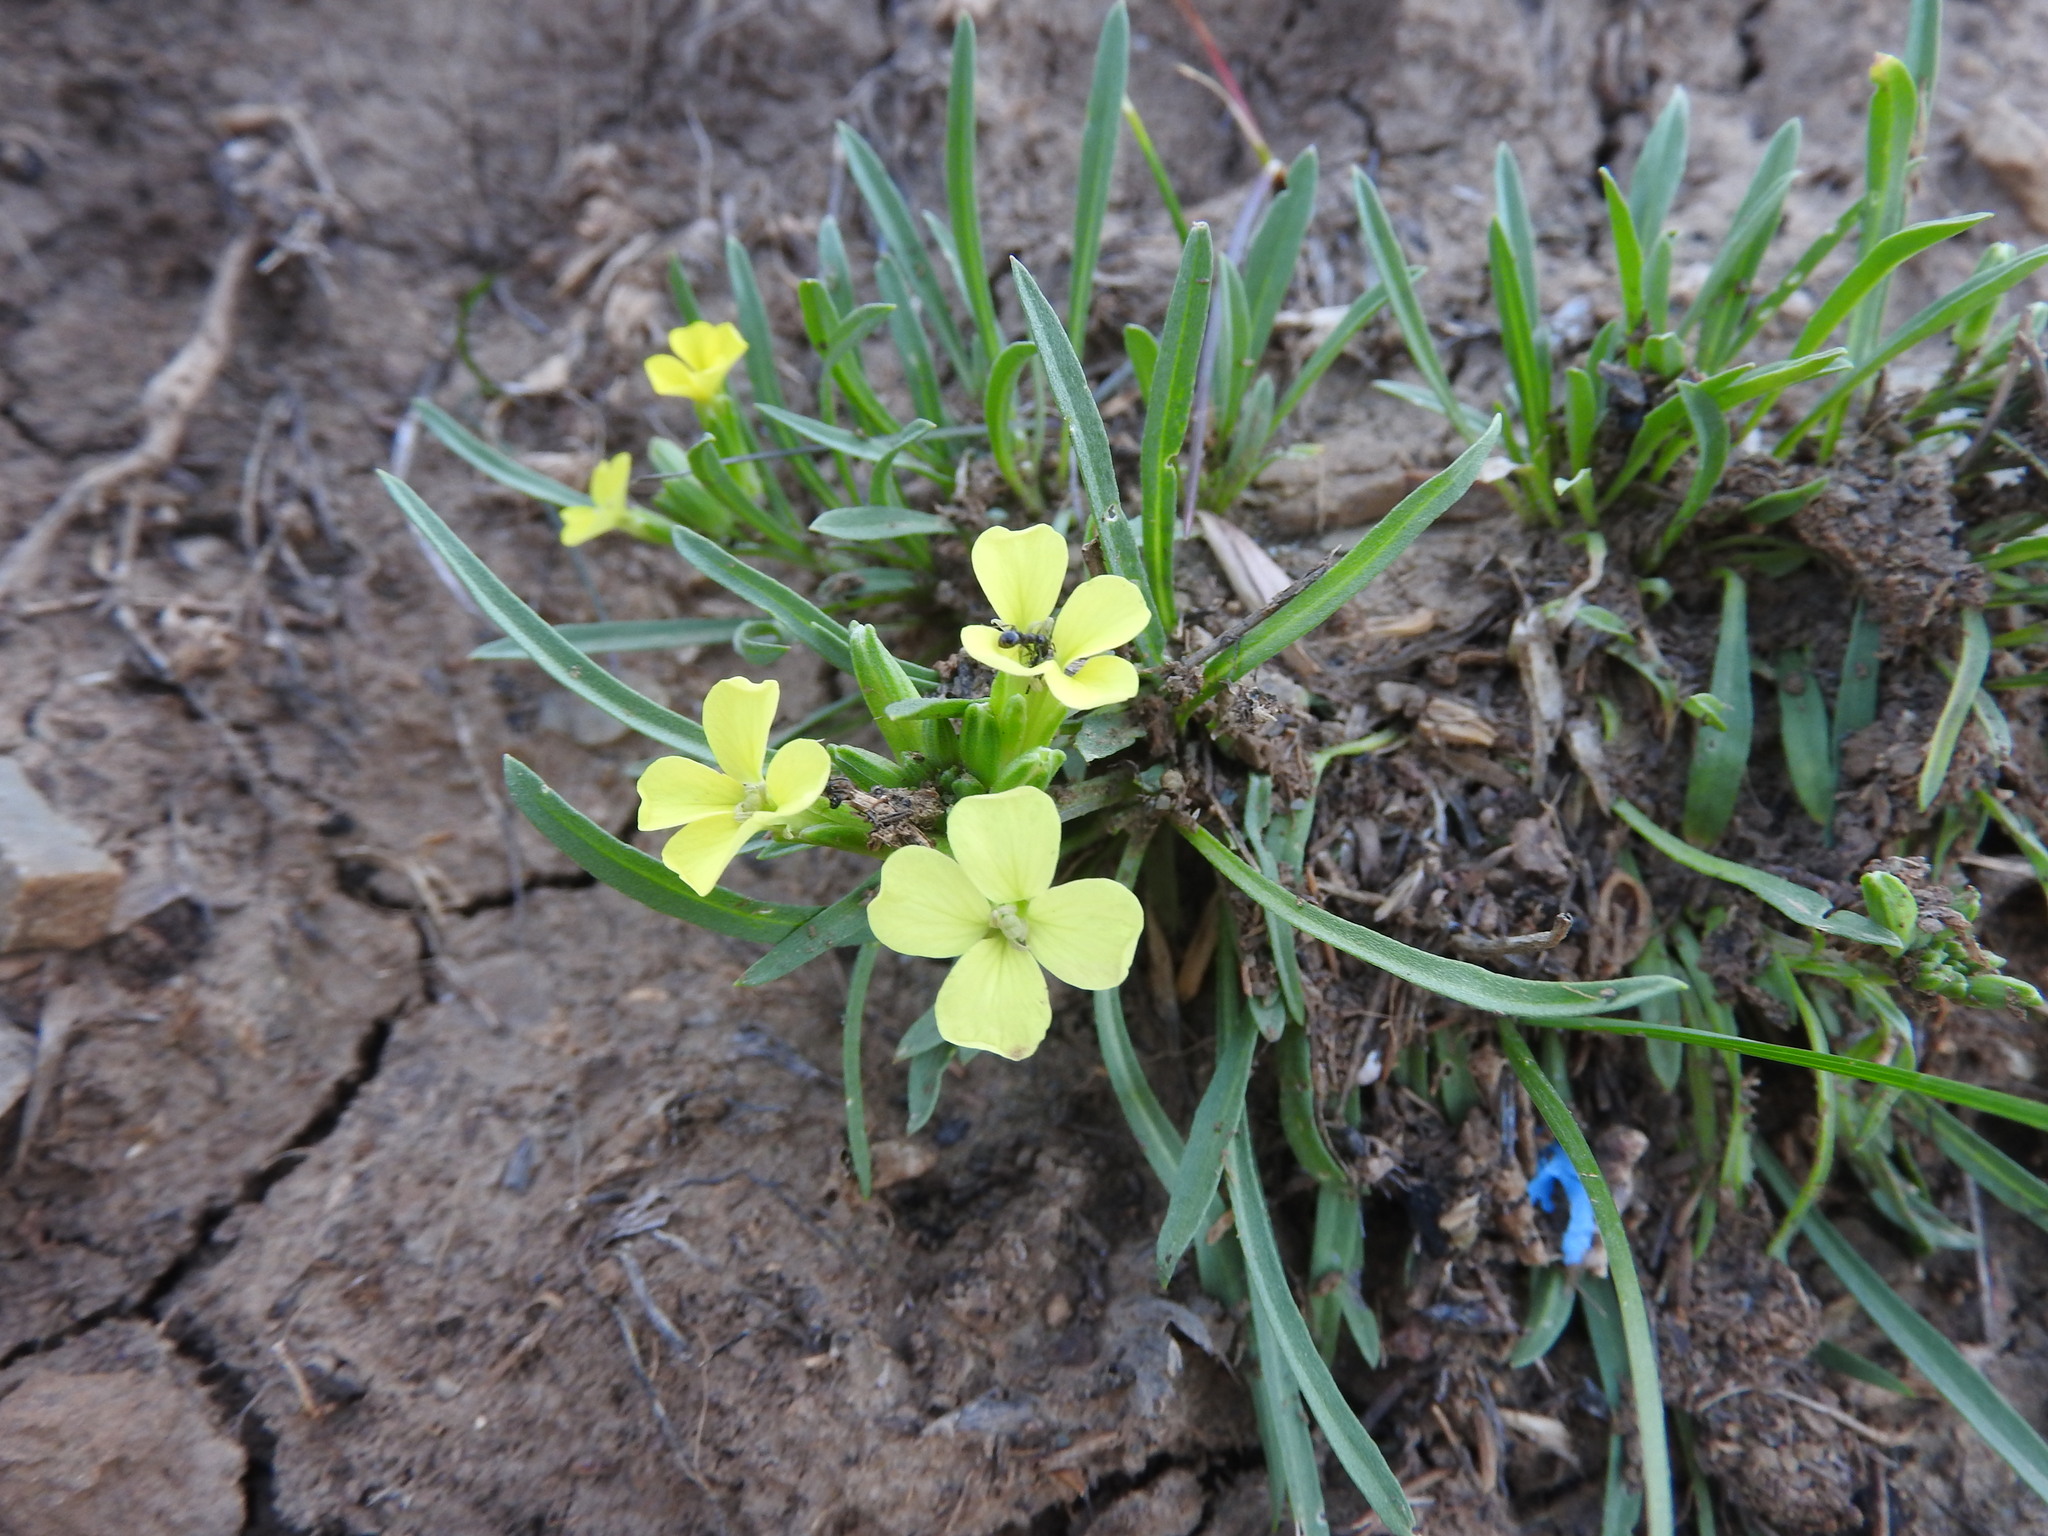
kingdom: Plantae
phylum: Tracheophyta
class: Magnoliopsida
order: Brassicales
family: Brassicaceae
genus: Erysimum
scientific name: Erysimum grandiflorum
